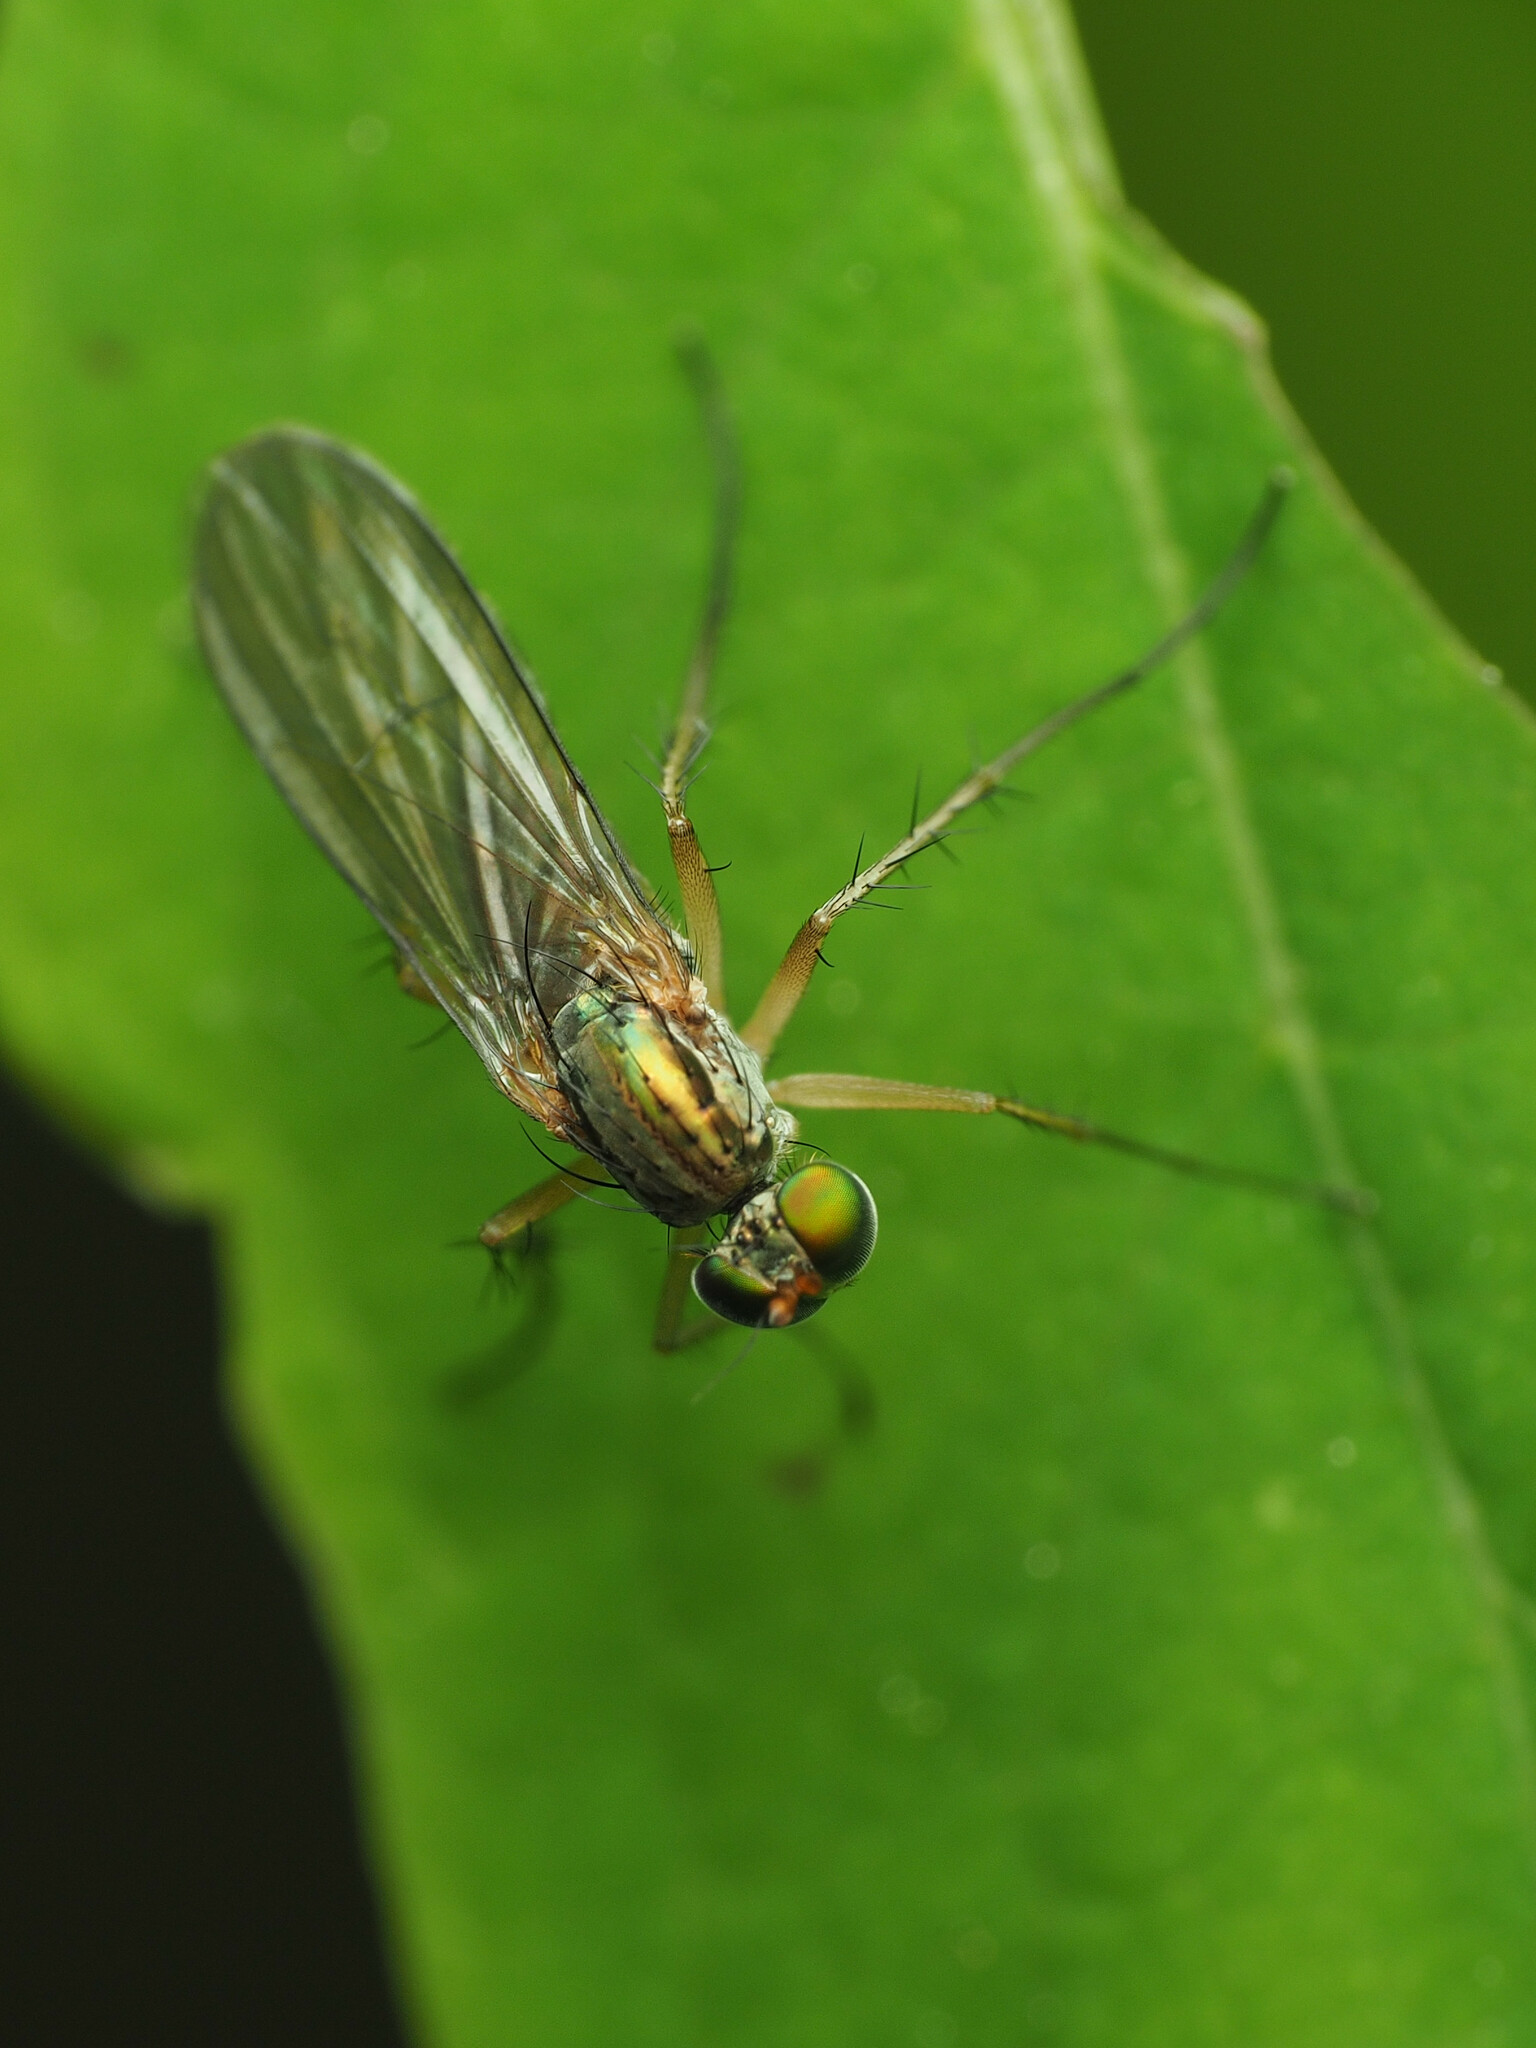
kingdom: Animalia
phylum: Arthropoda
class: Insecta
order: Diptera
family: Dolichopodidae
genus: Dolichopus
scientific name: Dolichopus longipennis
